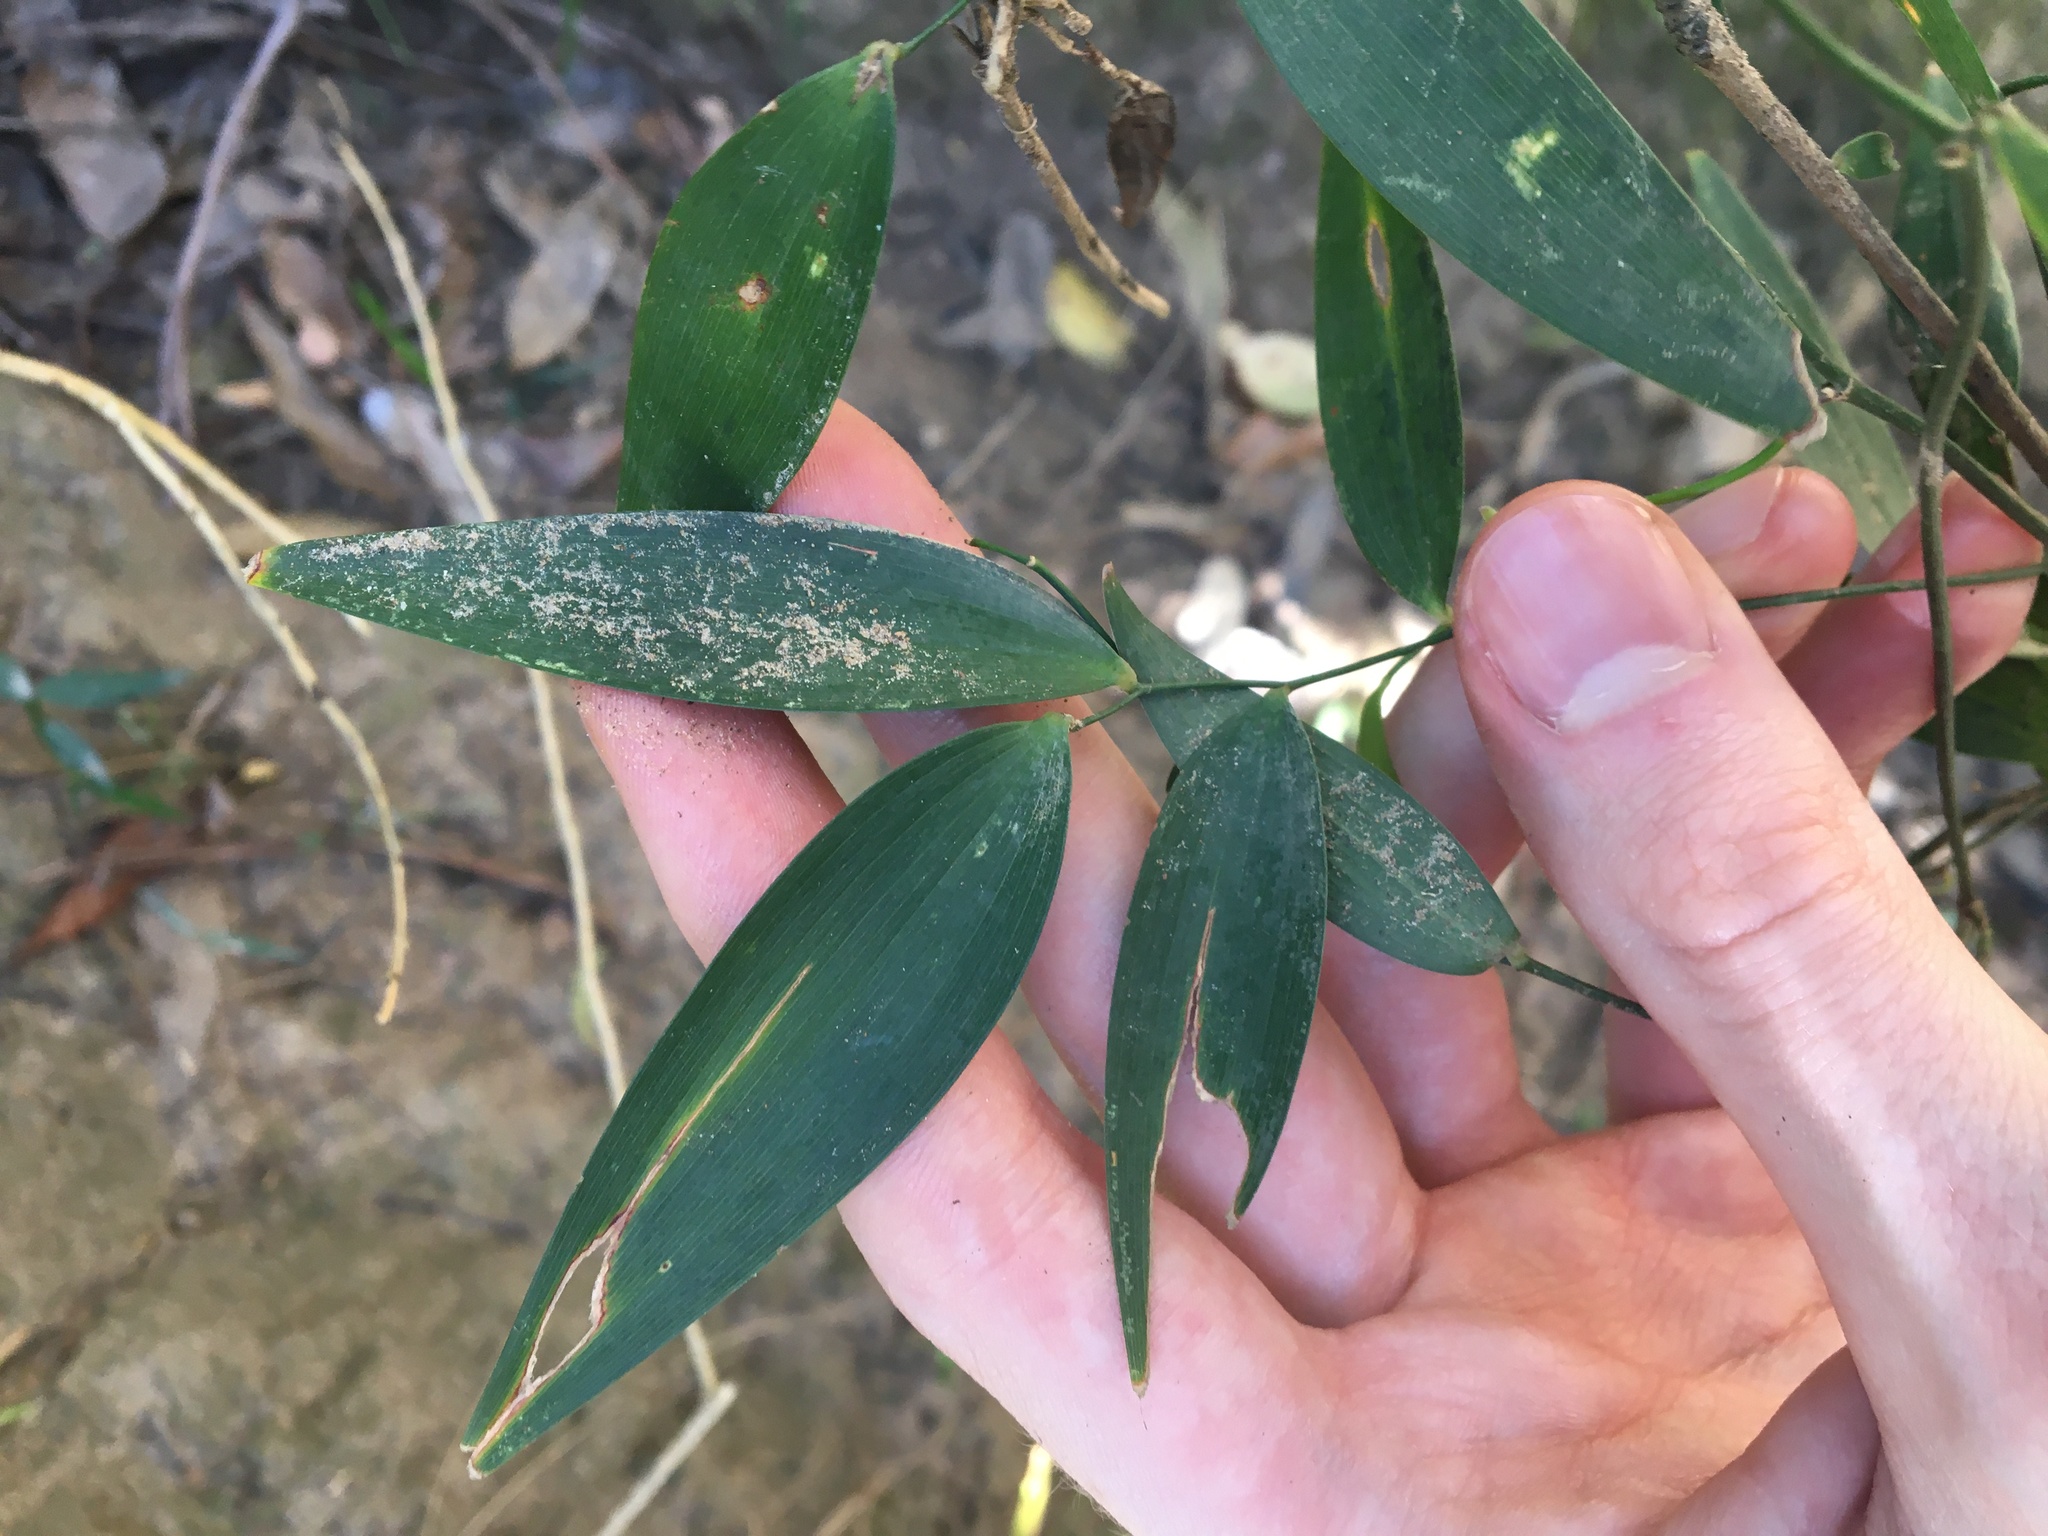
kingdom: Plantae
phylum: Tracheophyta
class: Liliopsida
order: Asparagales
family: Asparagaceae
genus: Eustrephus
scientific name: Eustrephus latifolius
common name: Orangevine
